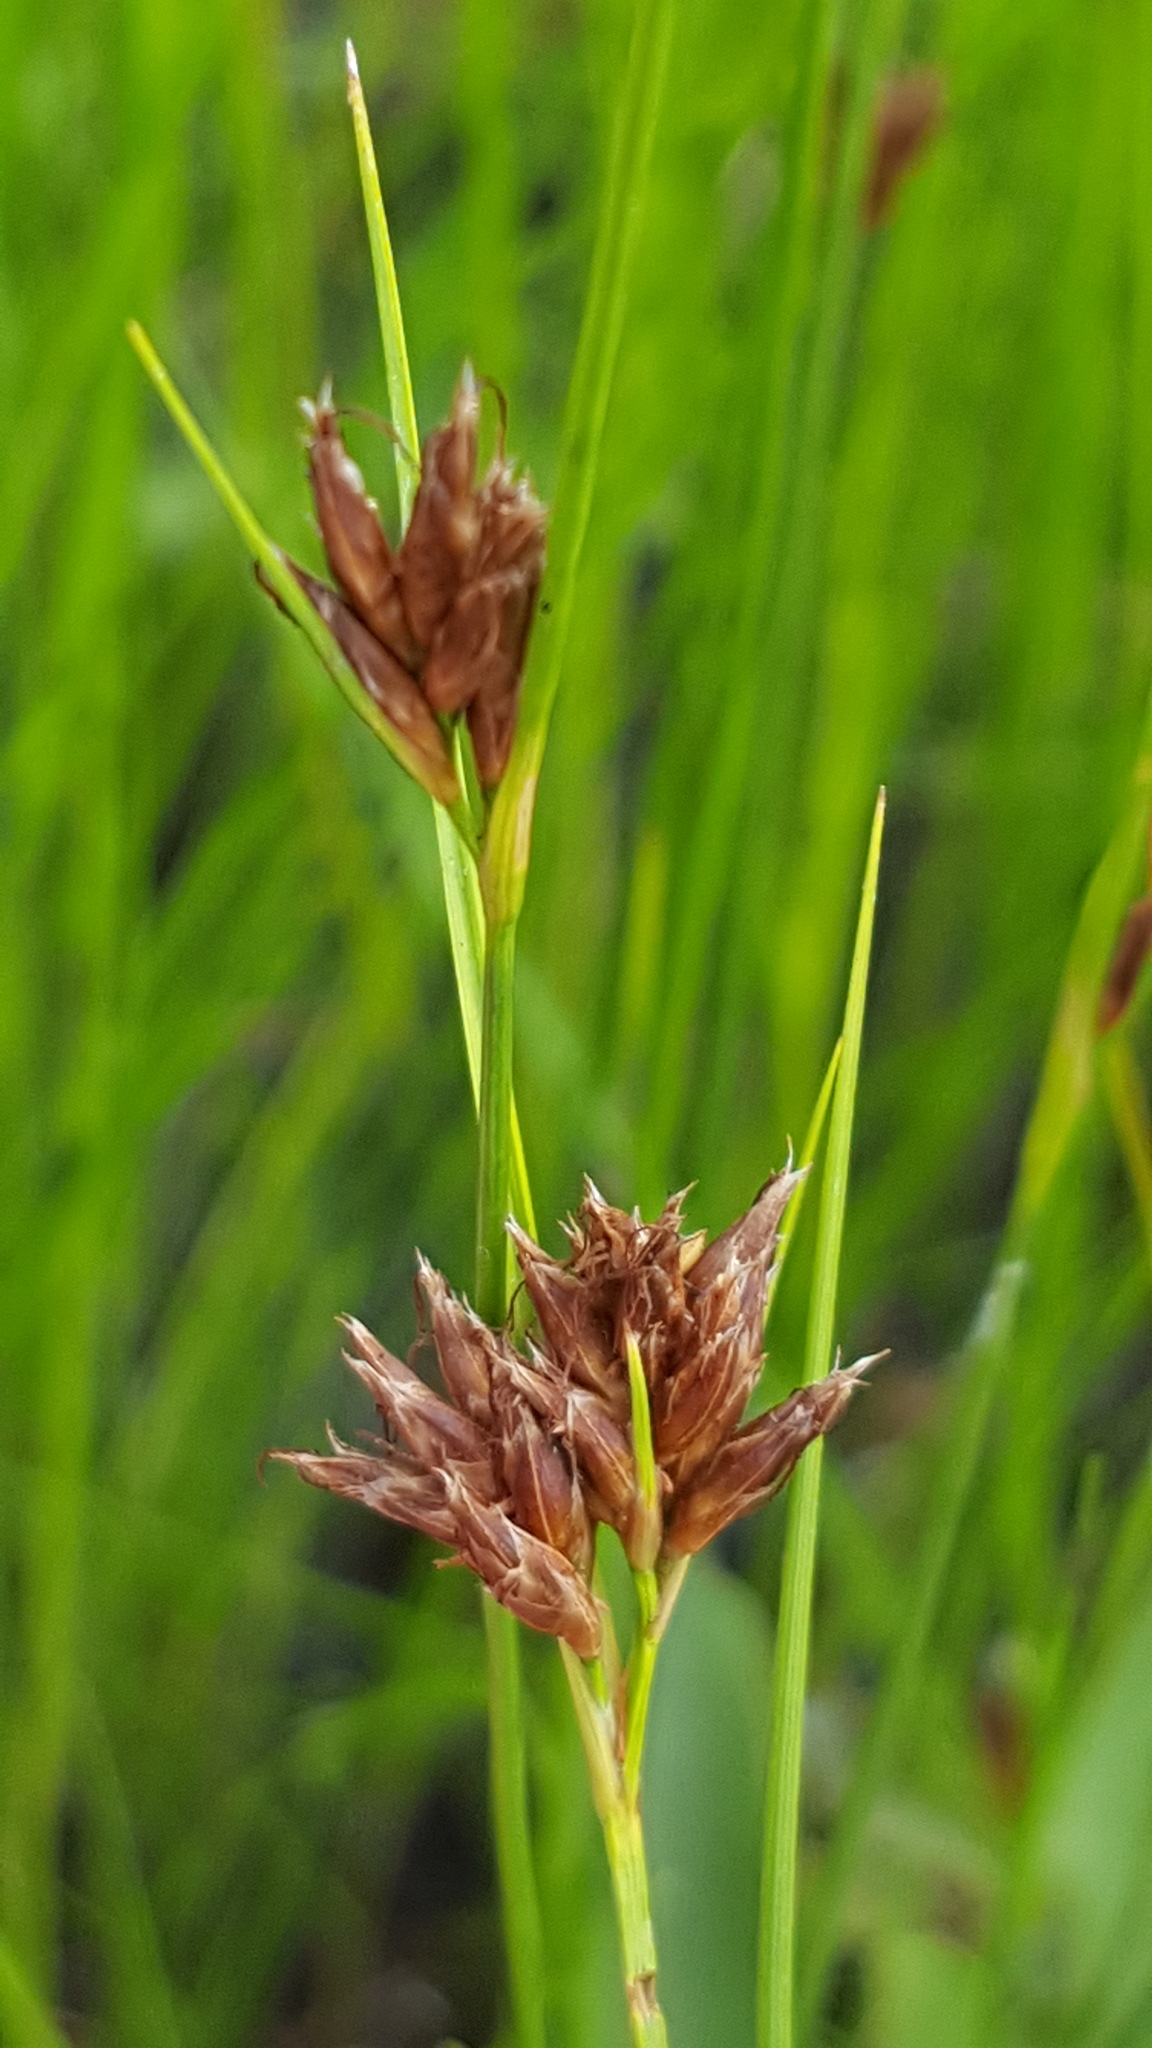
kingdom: Plantae
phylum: Tracheophyta
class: Liliopsida
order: Poales
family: Cyperaceae
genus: Rhynchospora
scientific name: Rhynchospora fusca
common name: Brown beak-sedge
